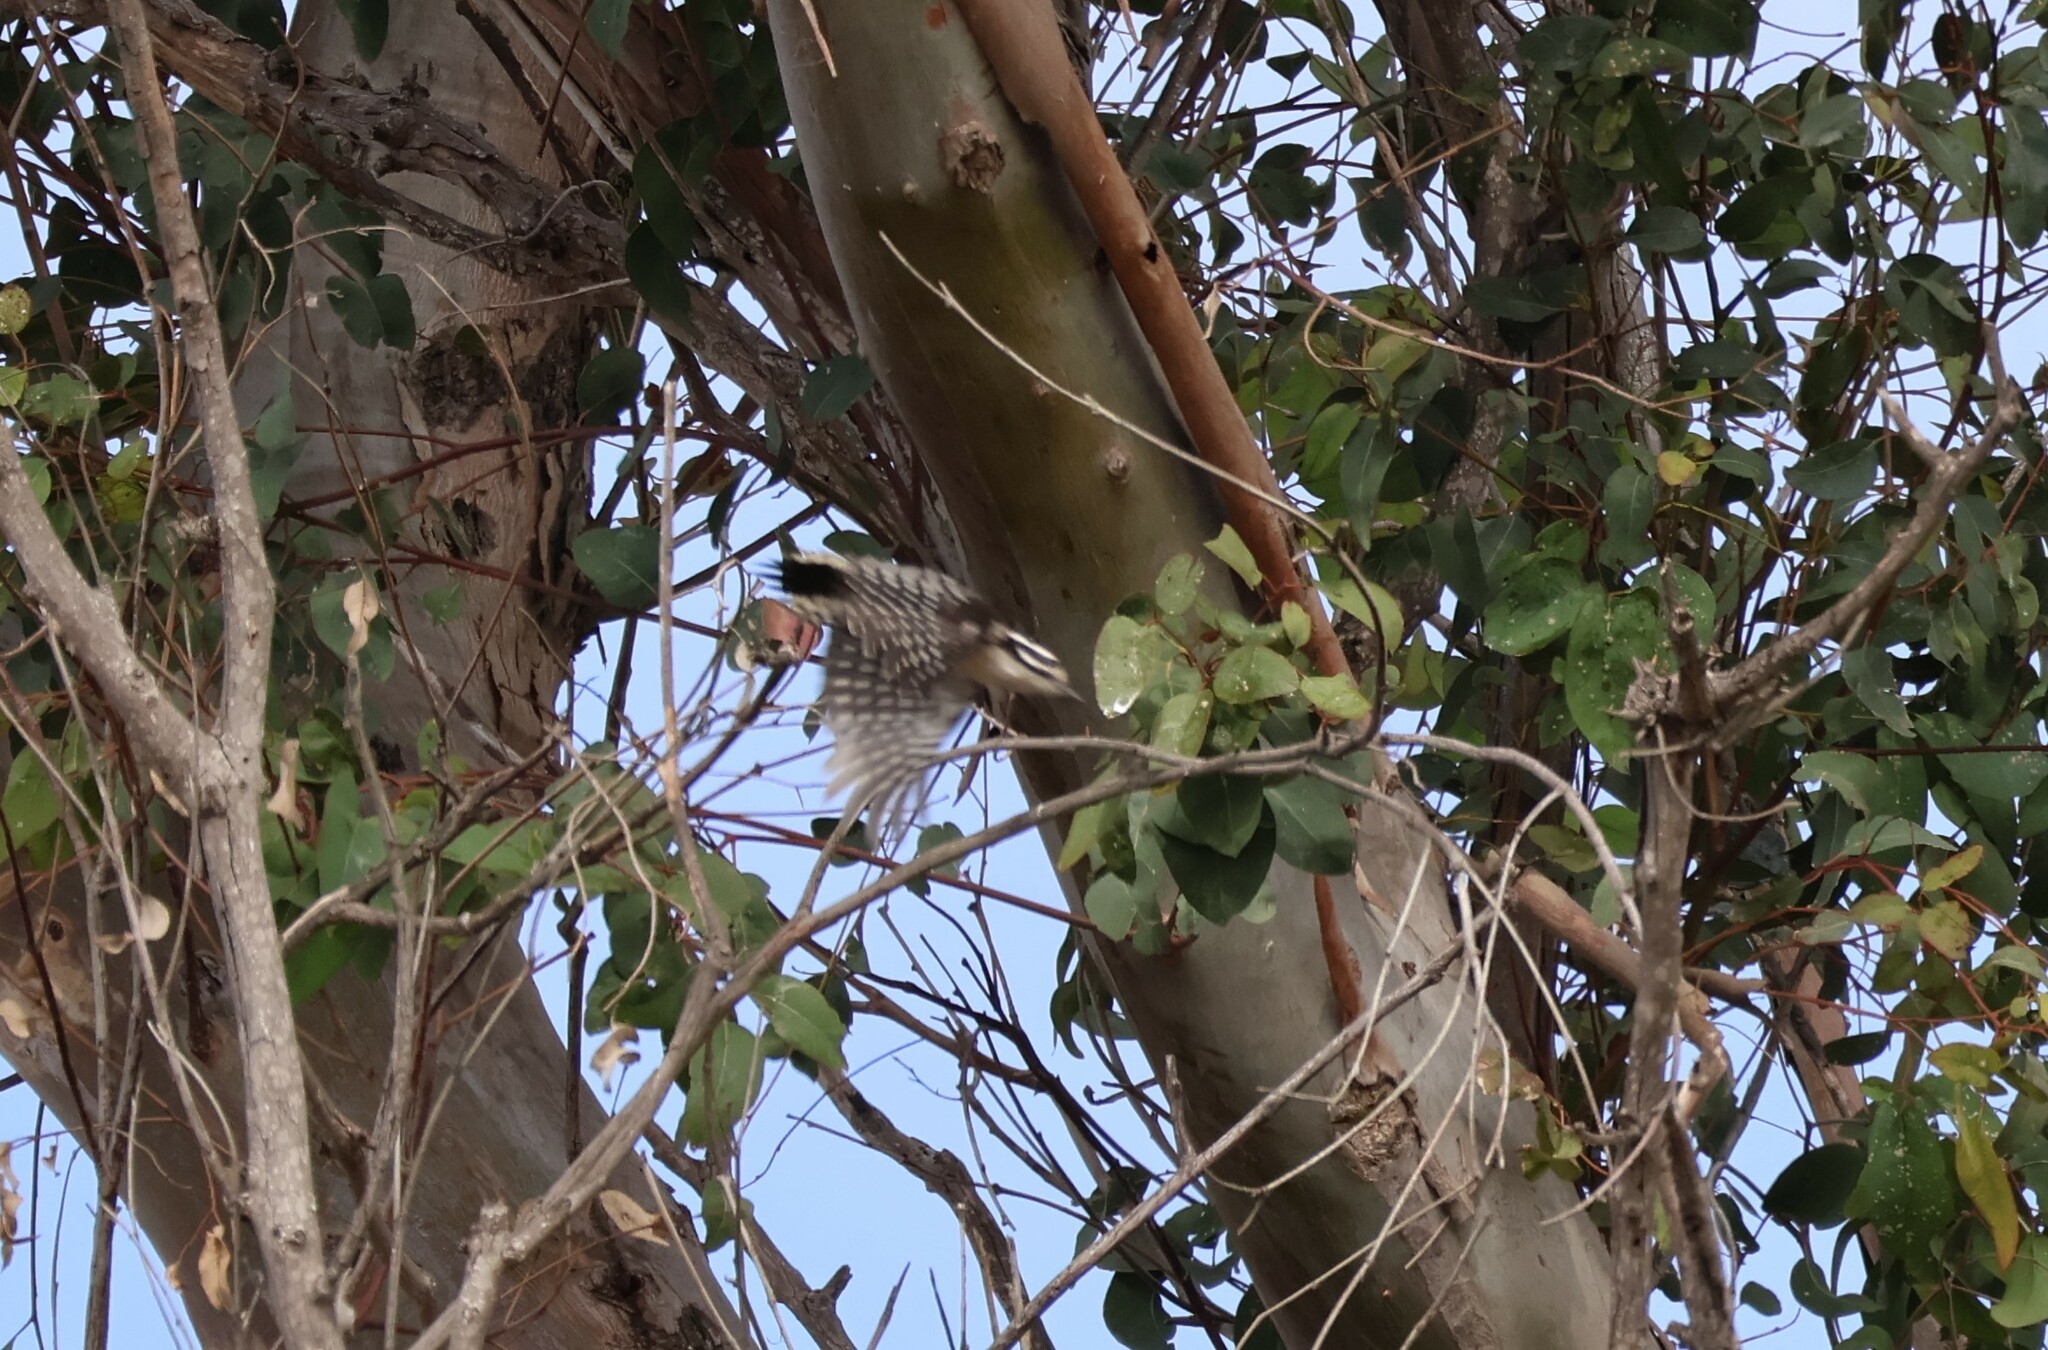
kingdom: Animalia
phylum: Chordata
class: Aves
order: Piciformes
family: Picidae
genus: Dryobates
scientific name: Dryobates nuttallii
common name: Nuttall's woodpecker
